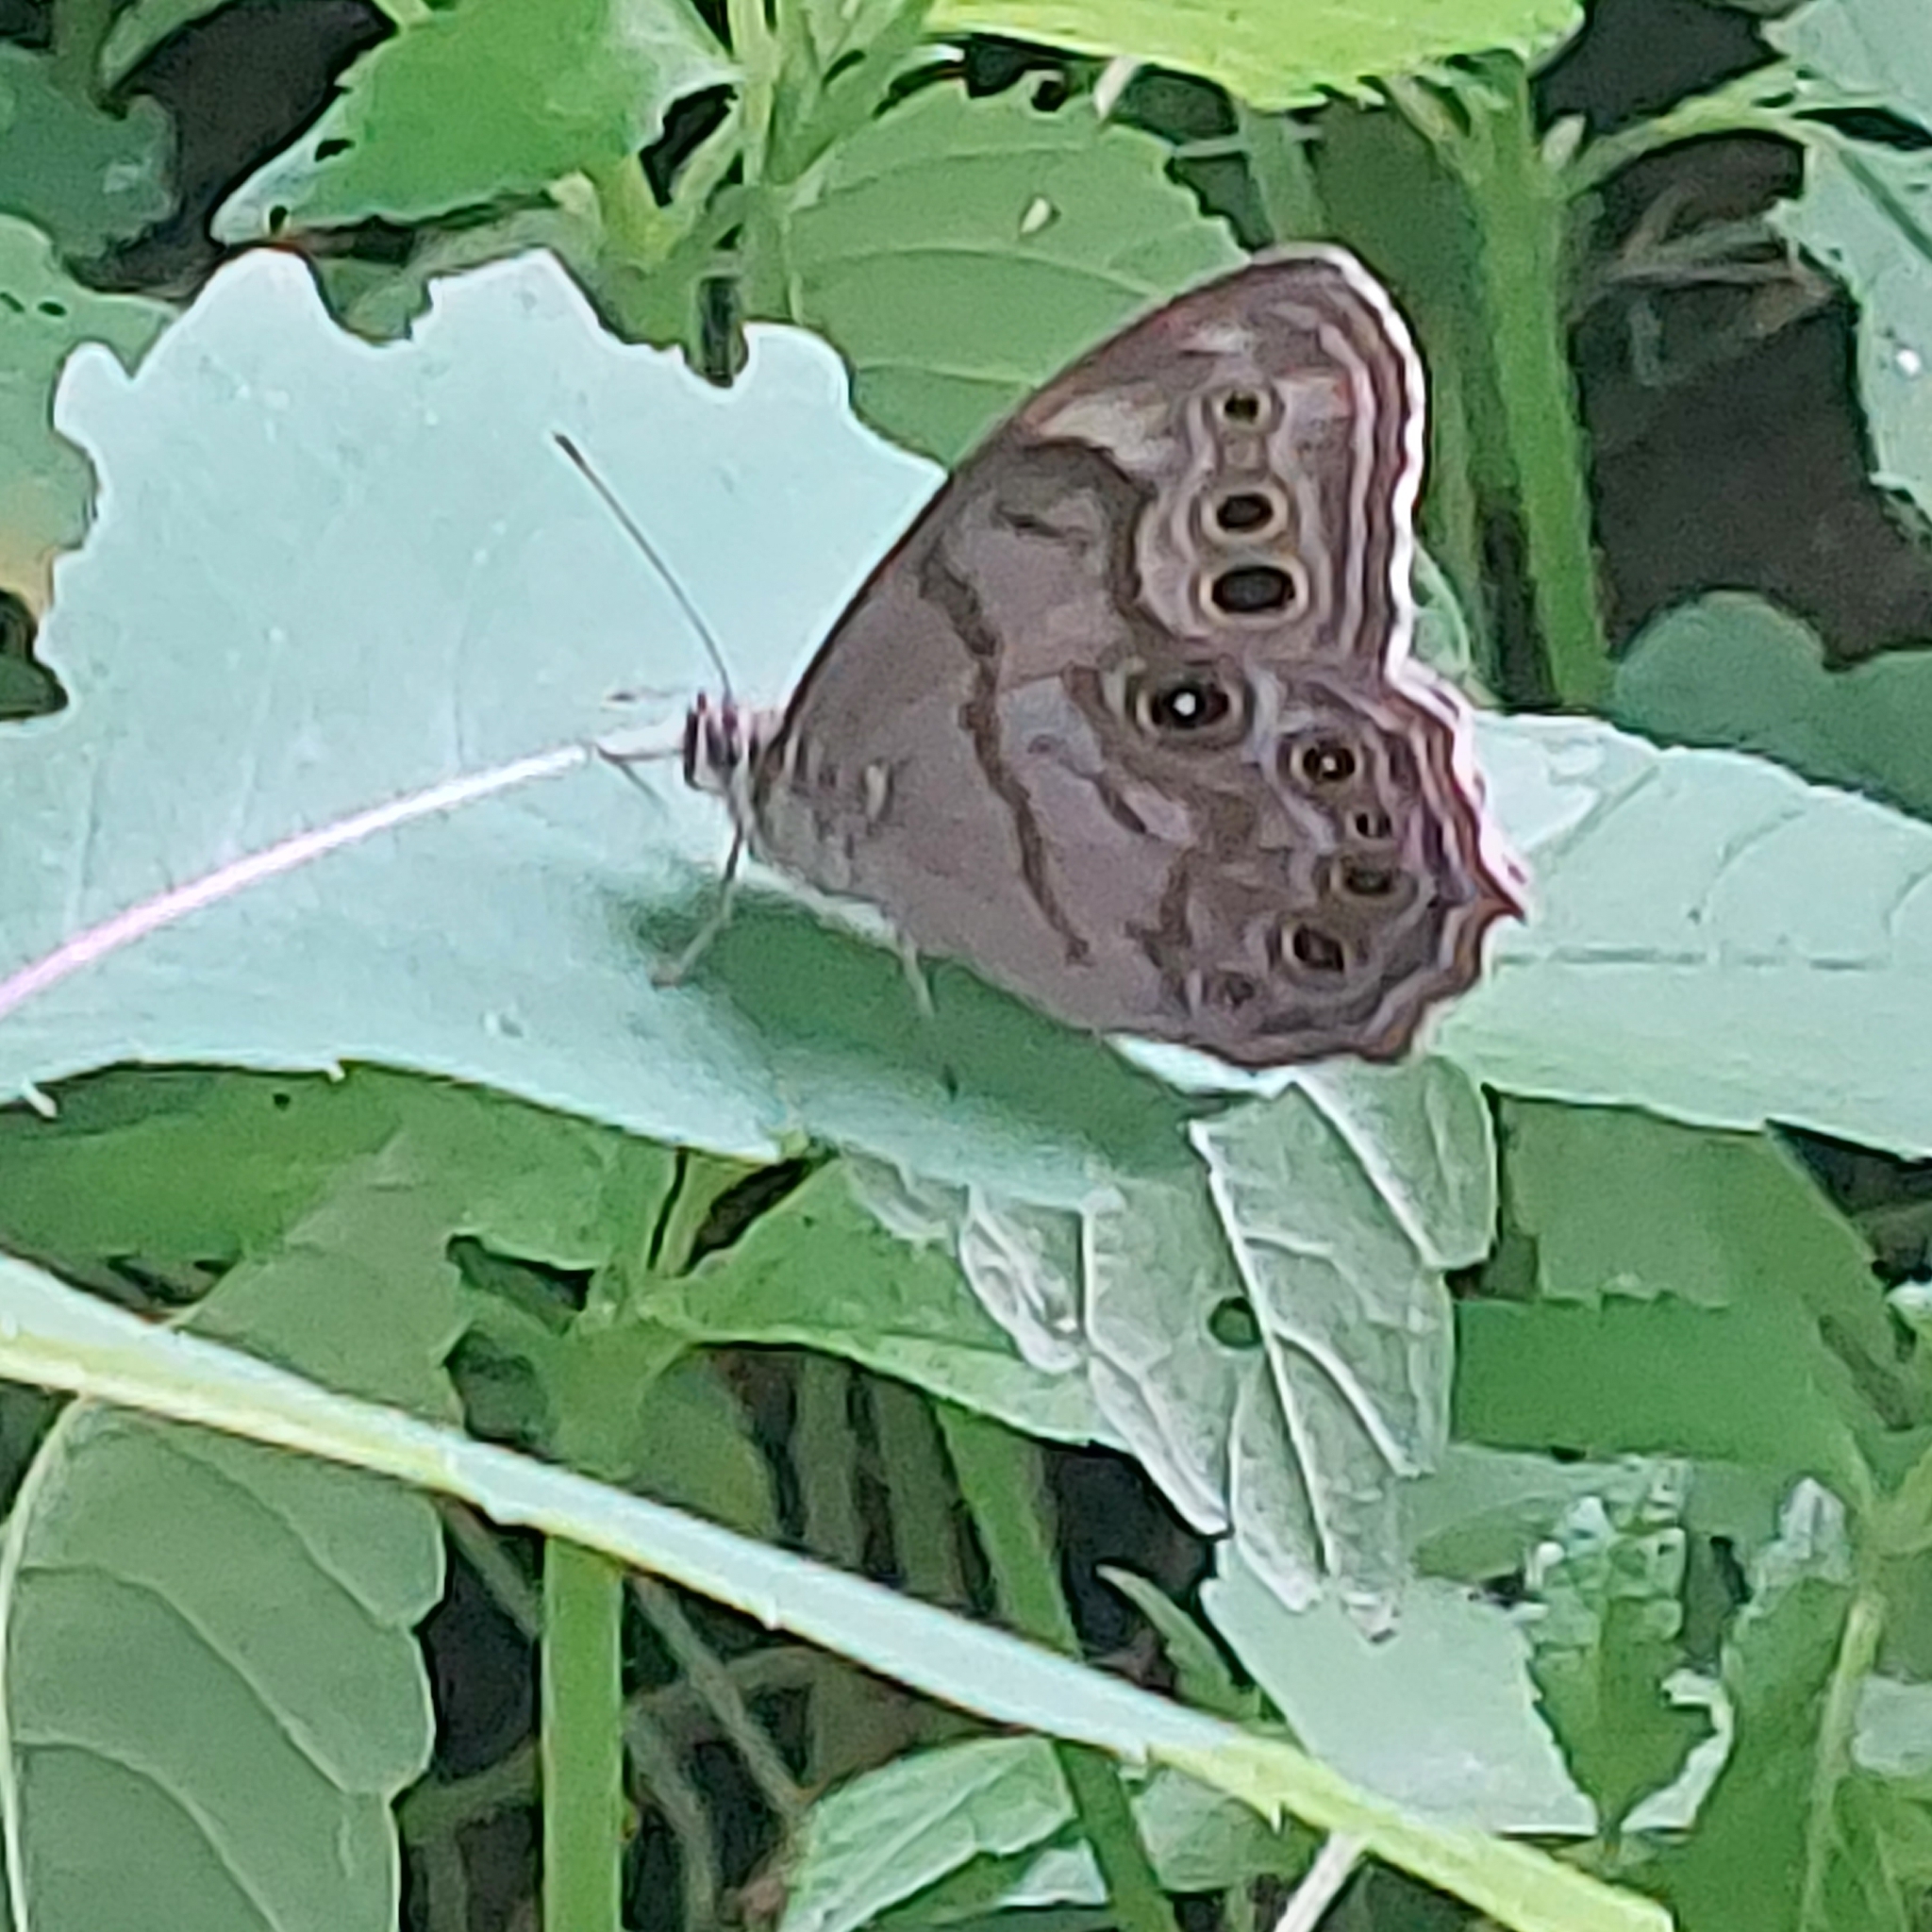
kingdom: Animalia
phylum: Arthropoda
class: Insecta
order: Lepidoptera
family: Nymphalidae
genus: Lethe
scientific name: Lethe anthedon
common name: Northern pearly-eye
